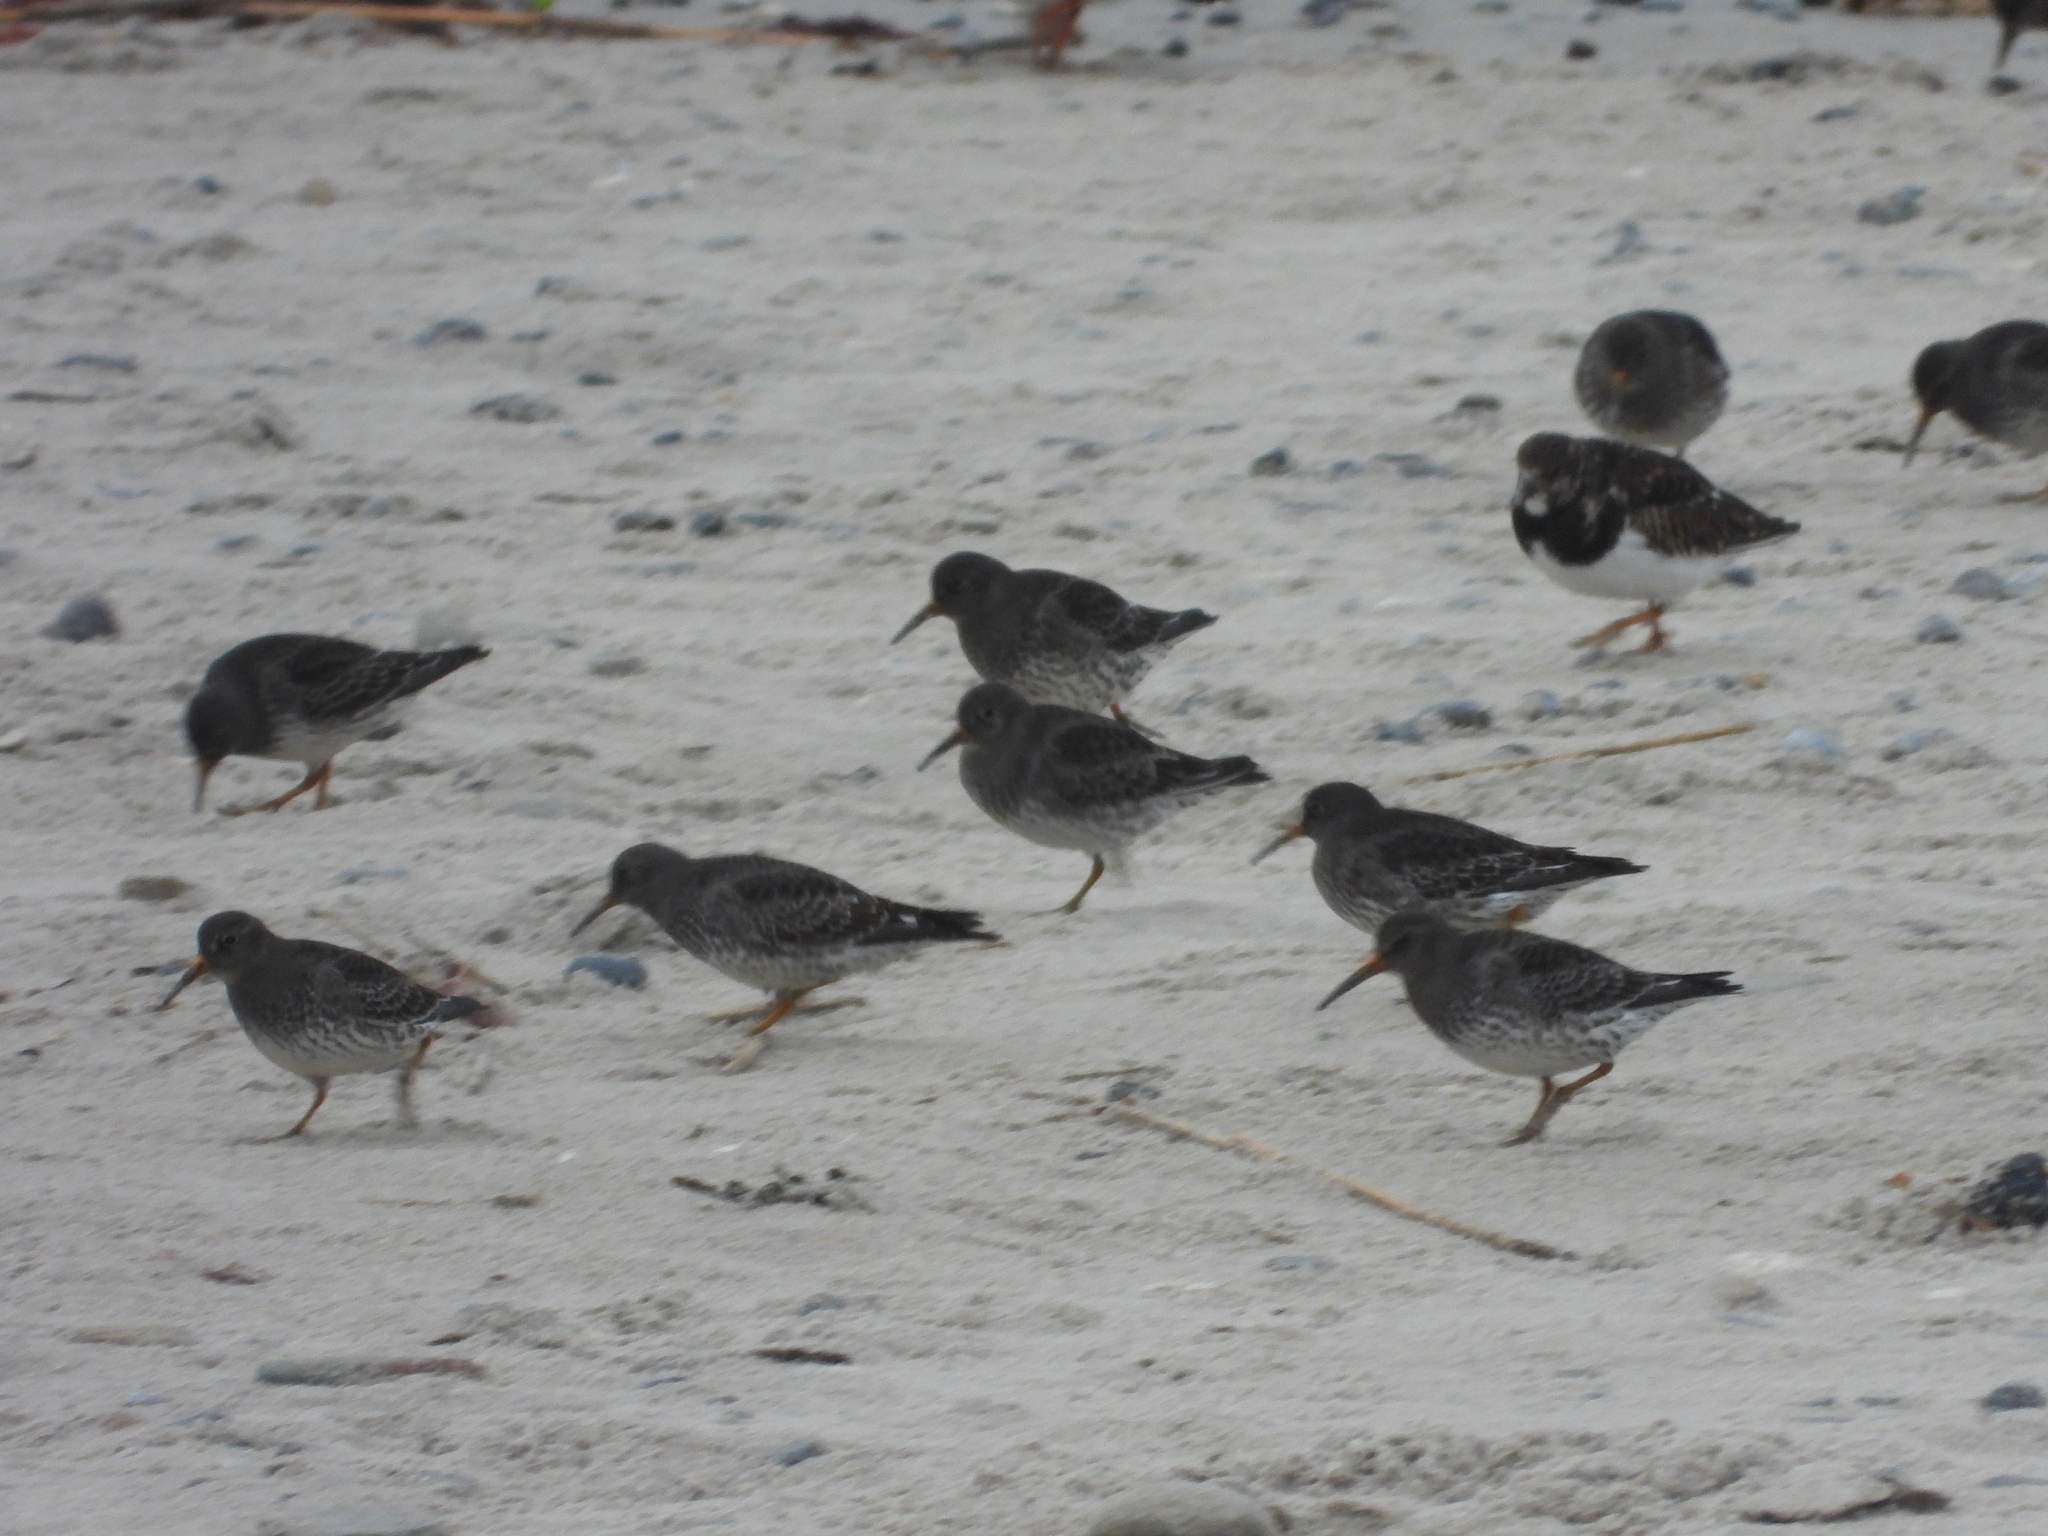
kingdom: Animalia
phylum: Chordata
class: Aves
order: Charadriiformes
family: Scolopacidae
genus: Calidris
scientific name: Calidris maritima
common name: Purple sandpiper
